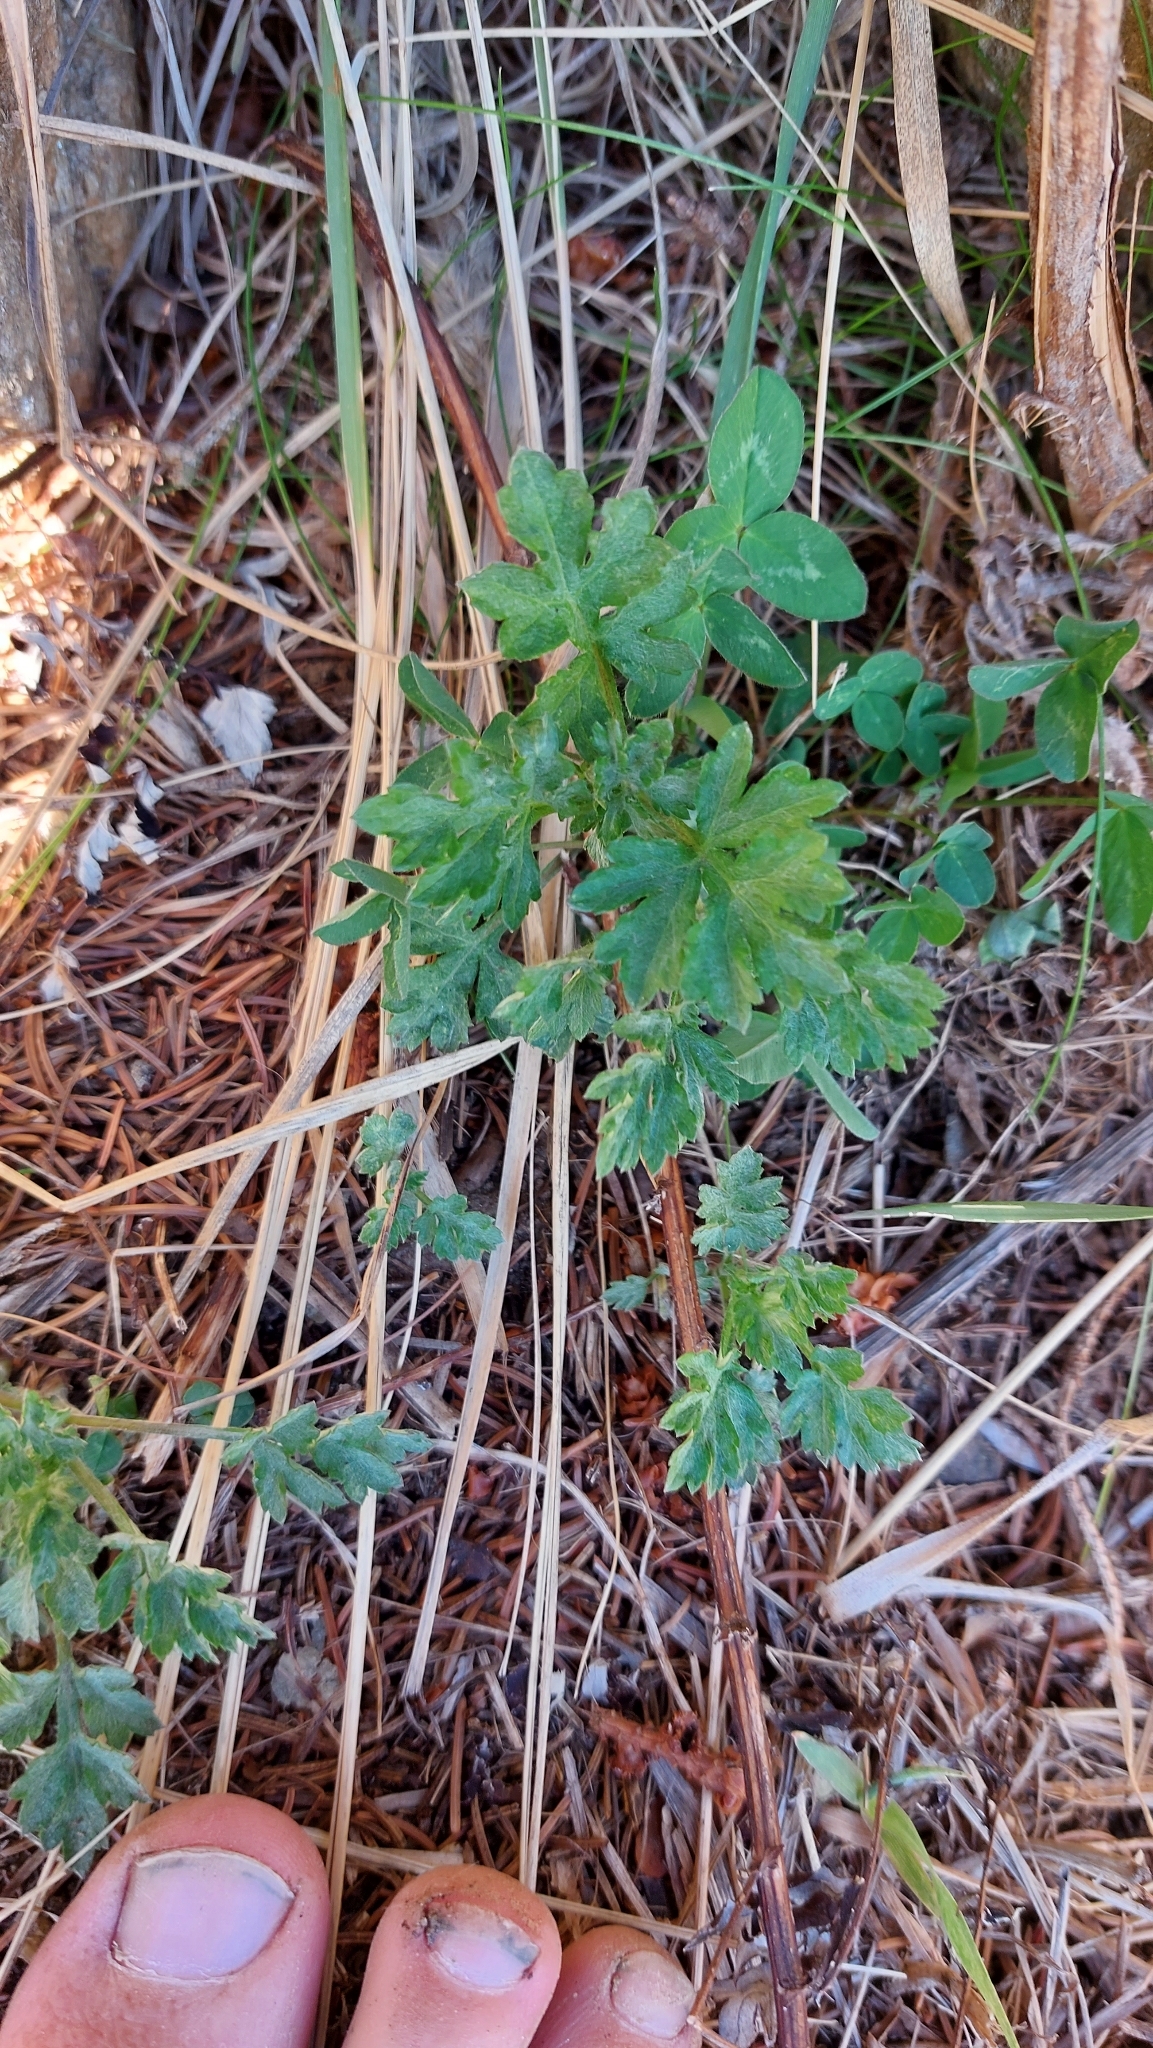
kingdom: Plantae
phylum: Tracheophyta
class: Magnoliopsida
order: Asterales
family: Asteraceae
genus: Artemisia
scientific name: Artemisia vulgaris
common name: Mugwort
